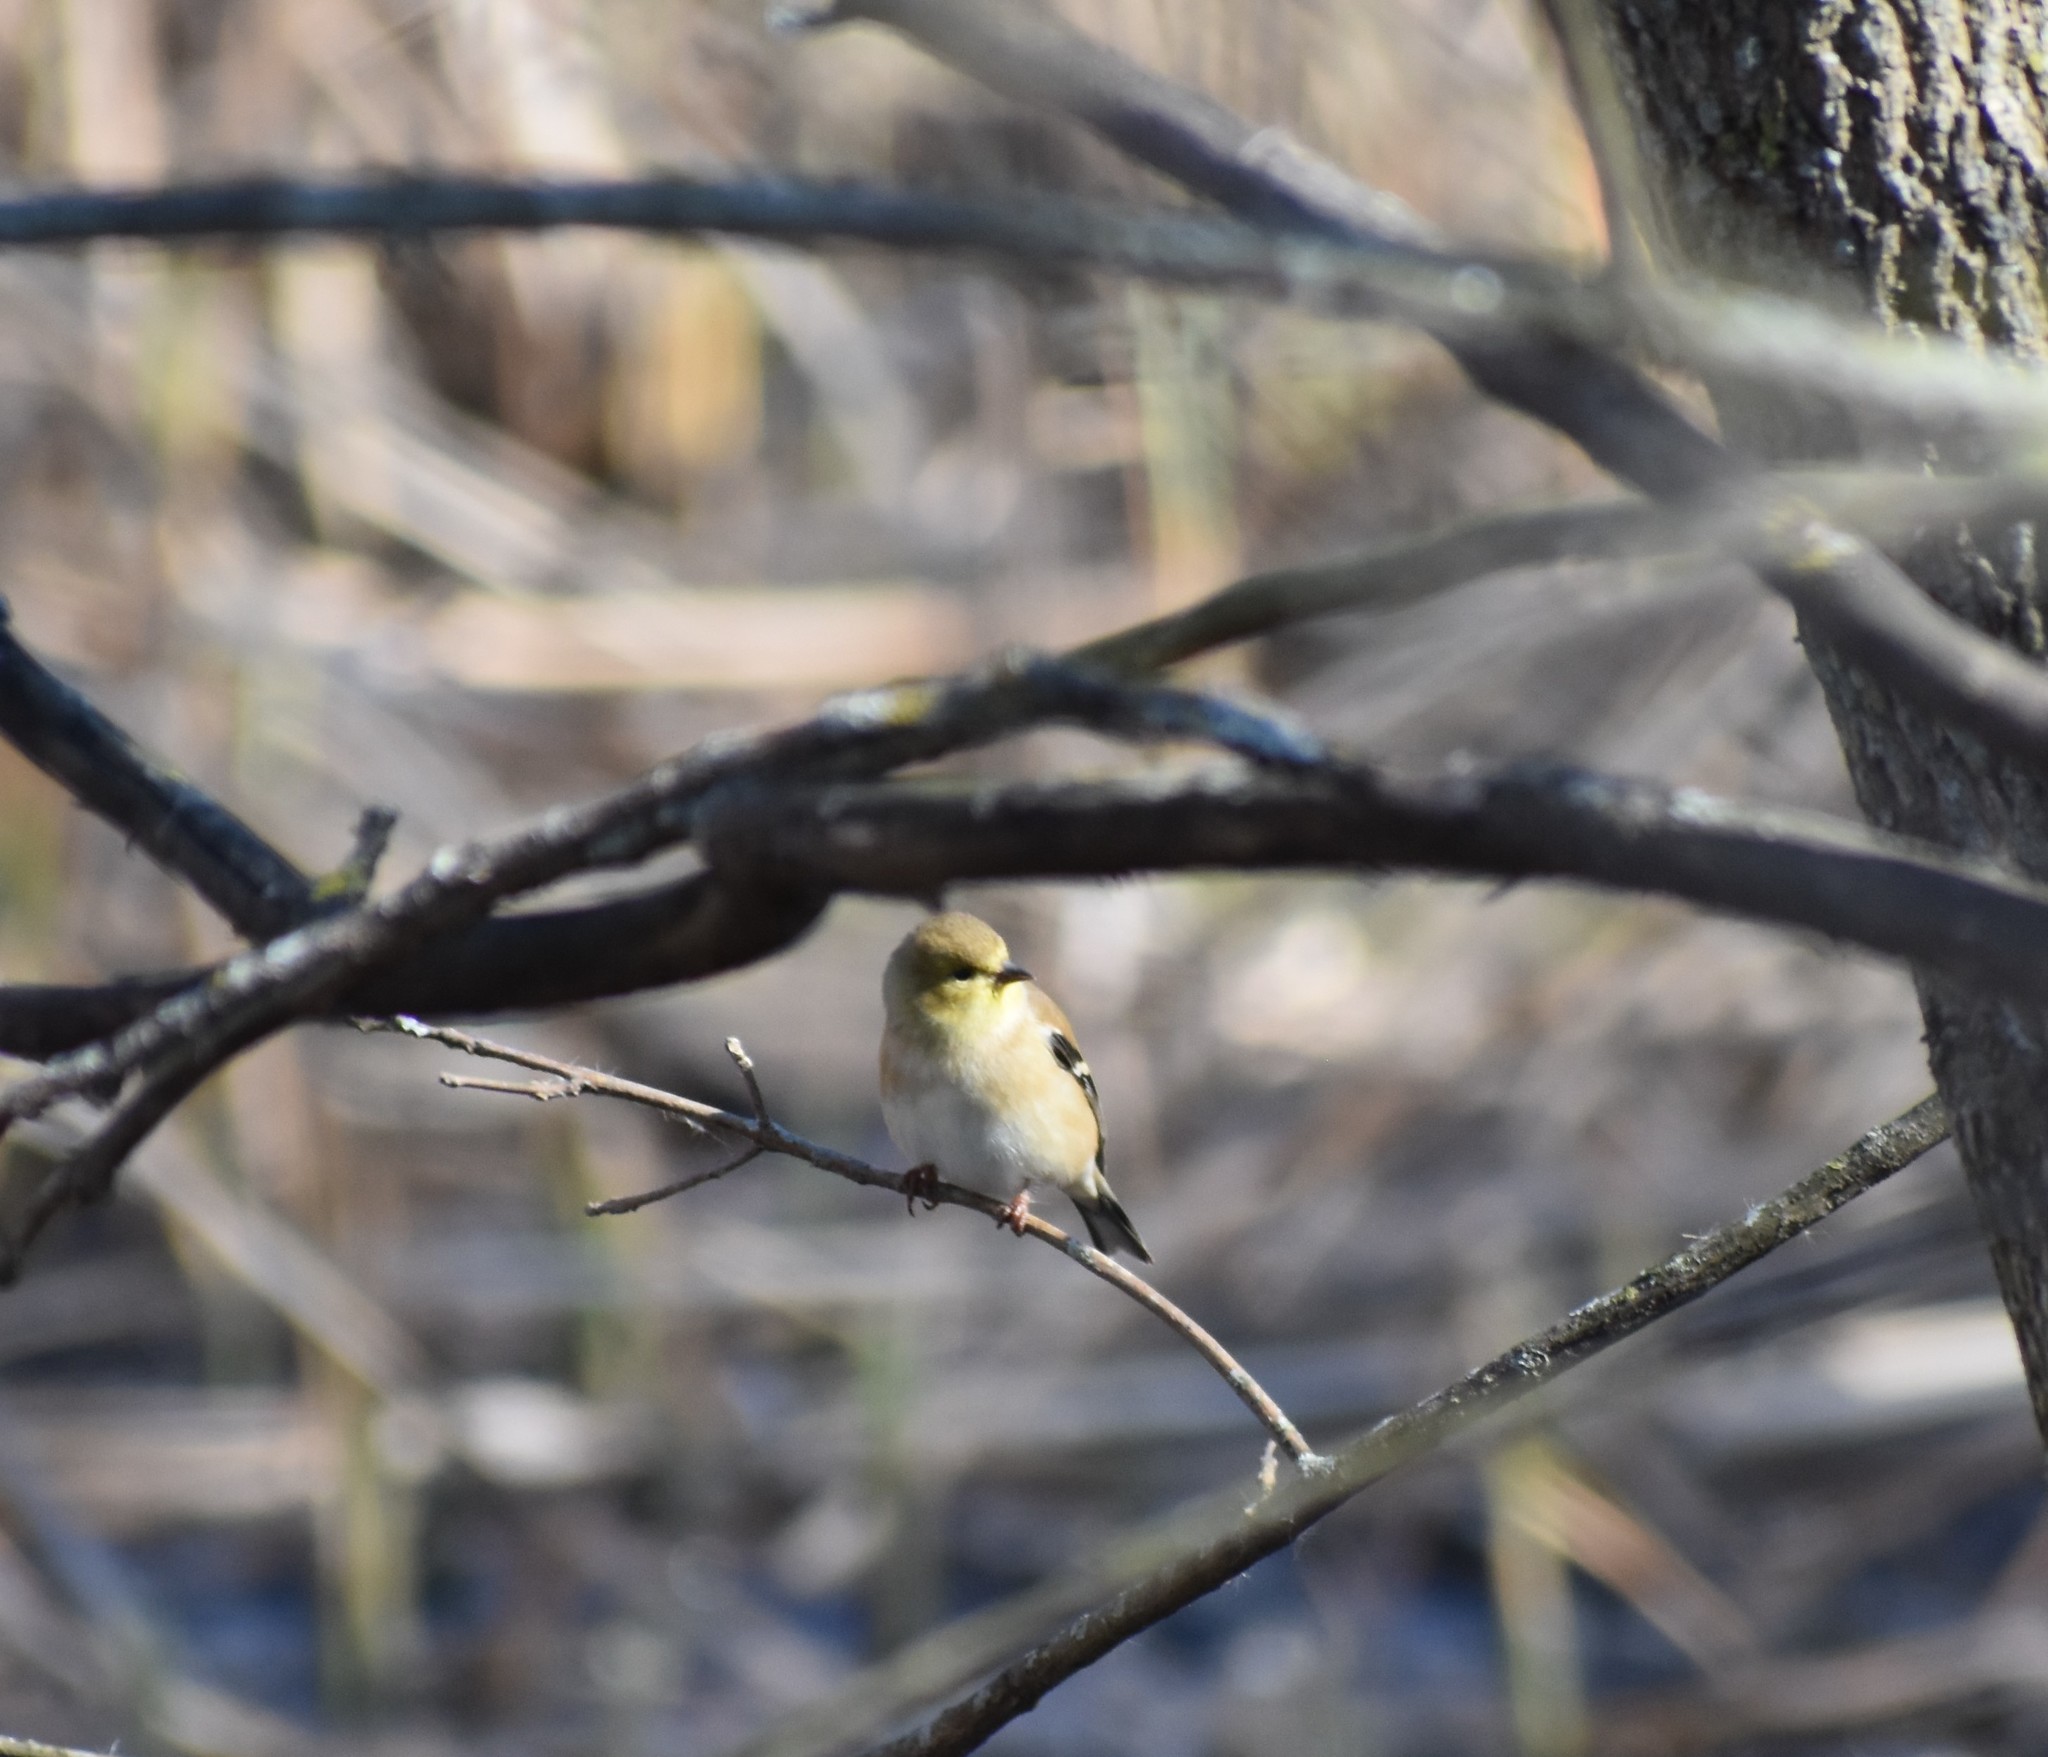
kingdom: Animalia
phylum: Chordata
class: Aves
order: Passeriformes
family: Fringillidae
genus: Spinus
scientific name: Spinus tristis
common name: American goldfinch
